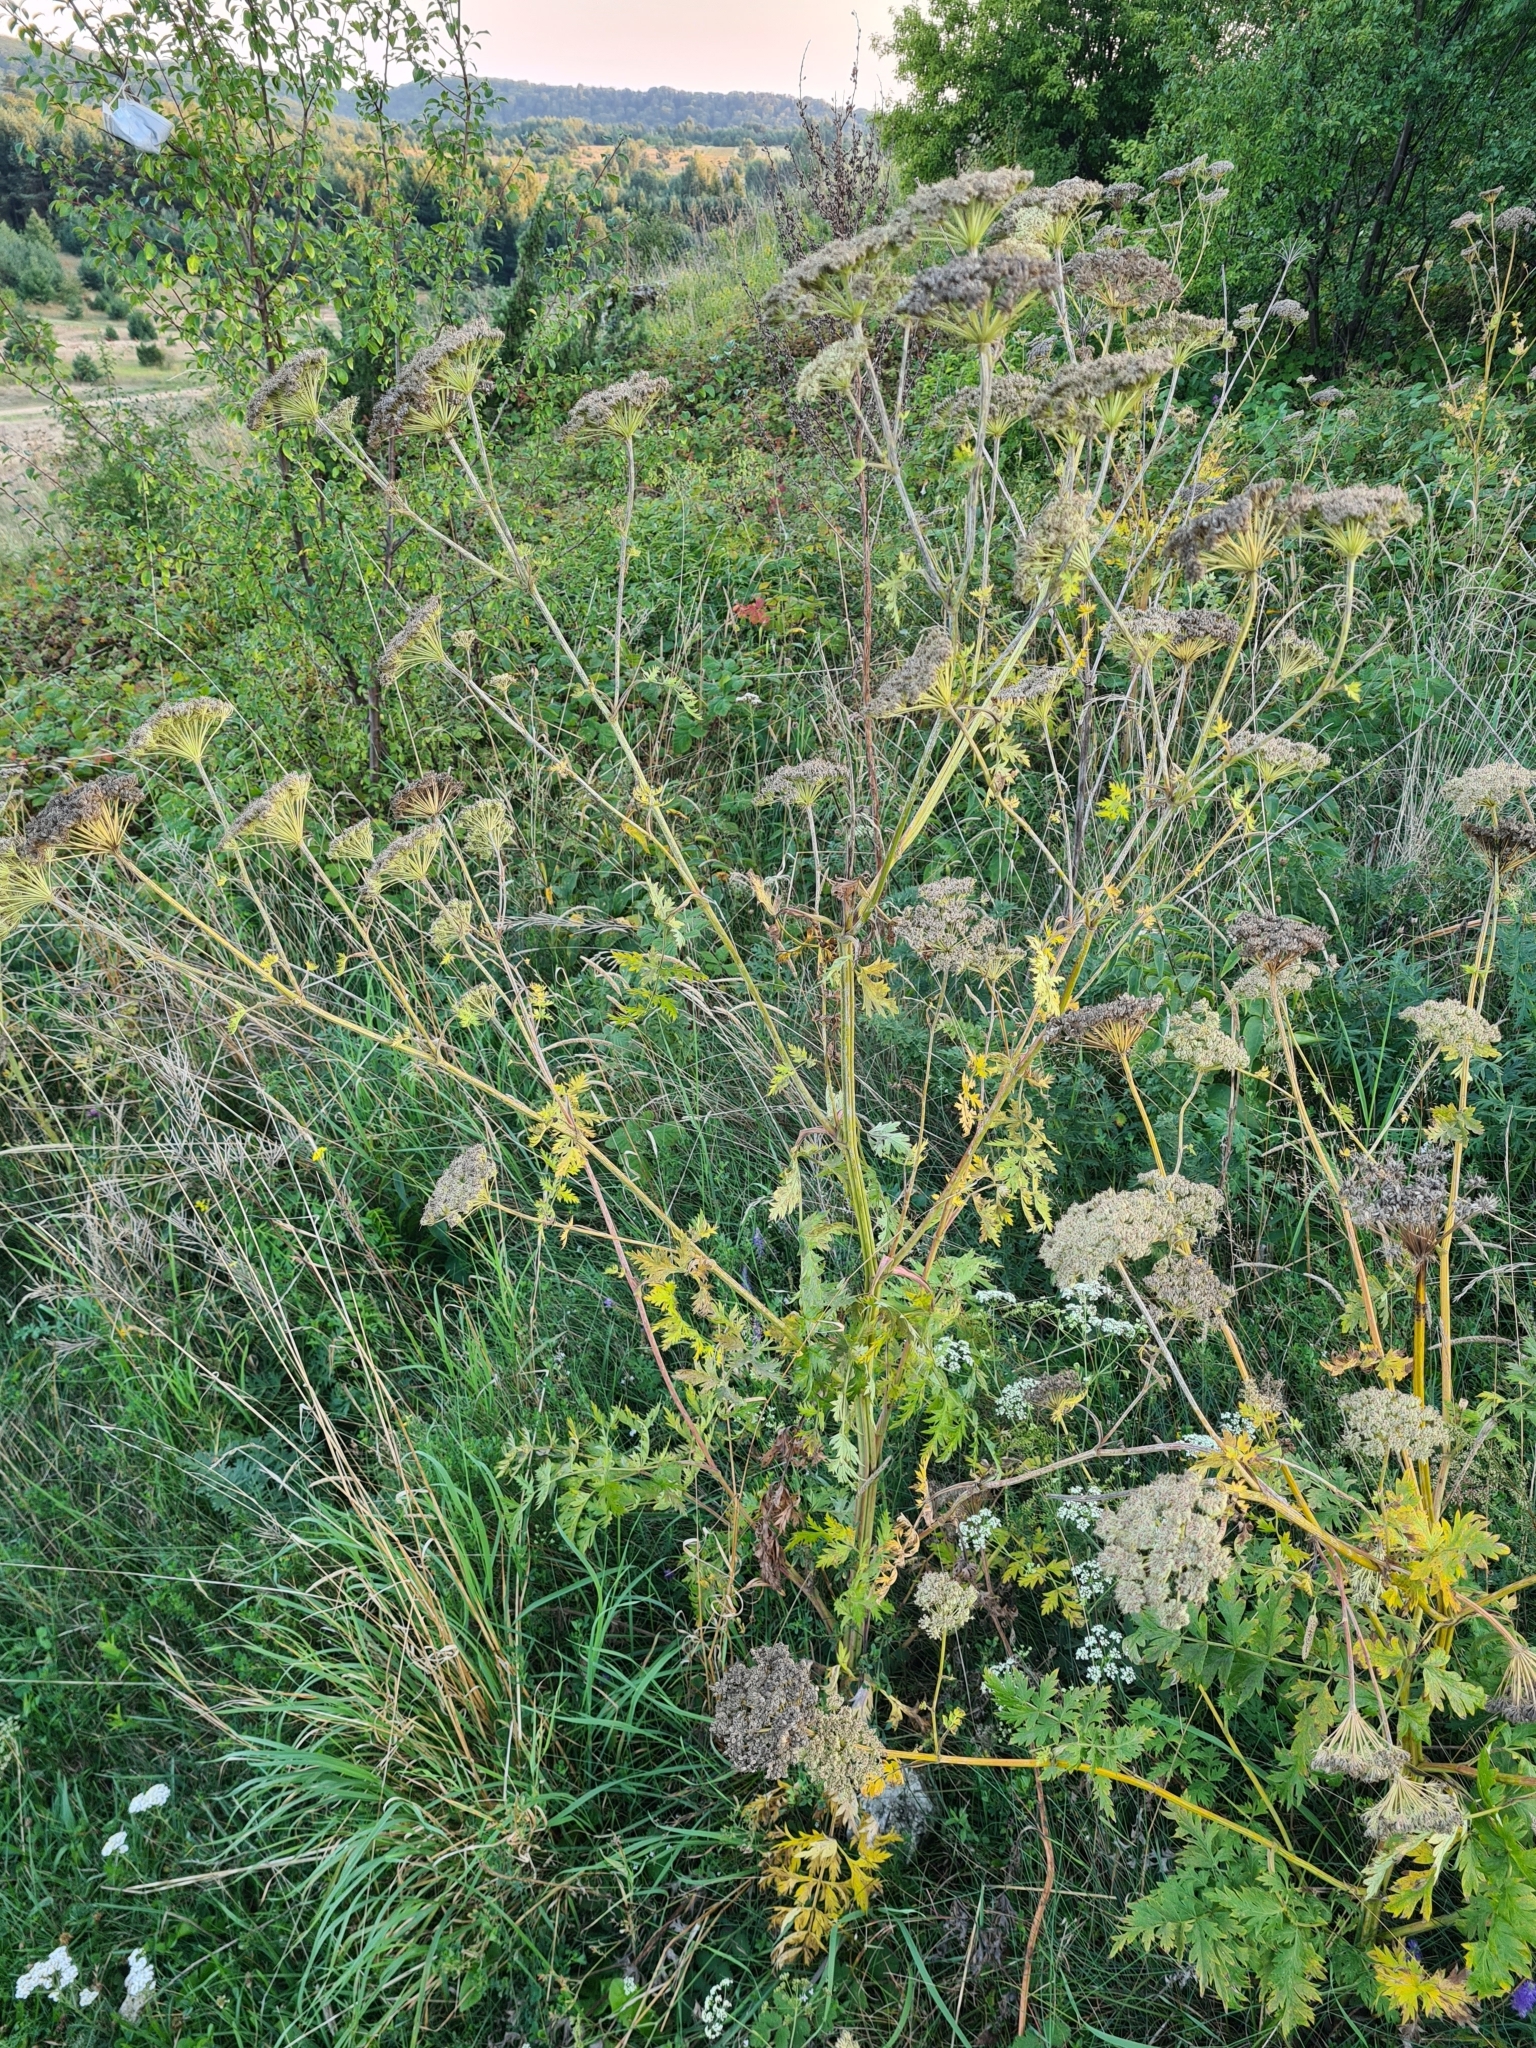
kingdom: Plantae
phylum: Tracheophyta
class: Magnoliopsida
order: Apiales
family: Apiaceae
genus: Seseli
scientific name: Seseli libanotis
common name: Mooncarrot
